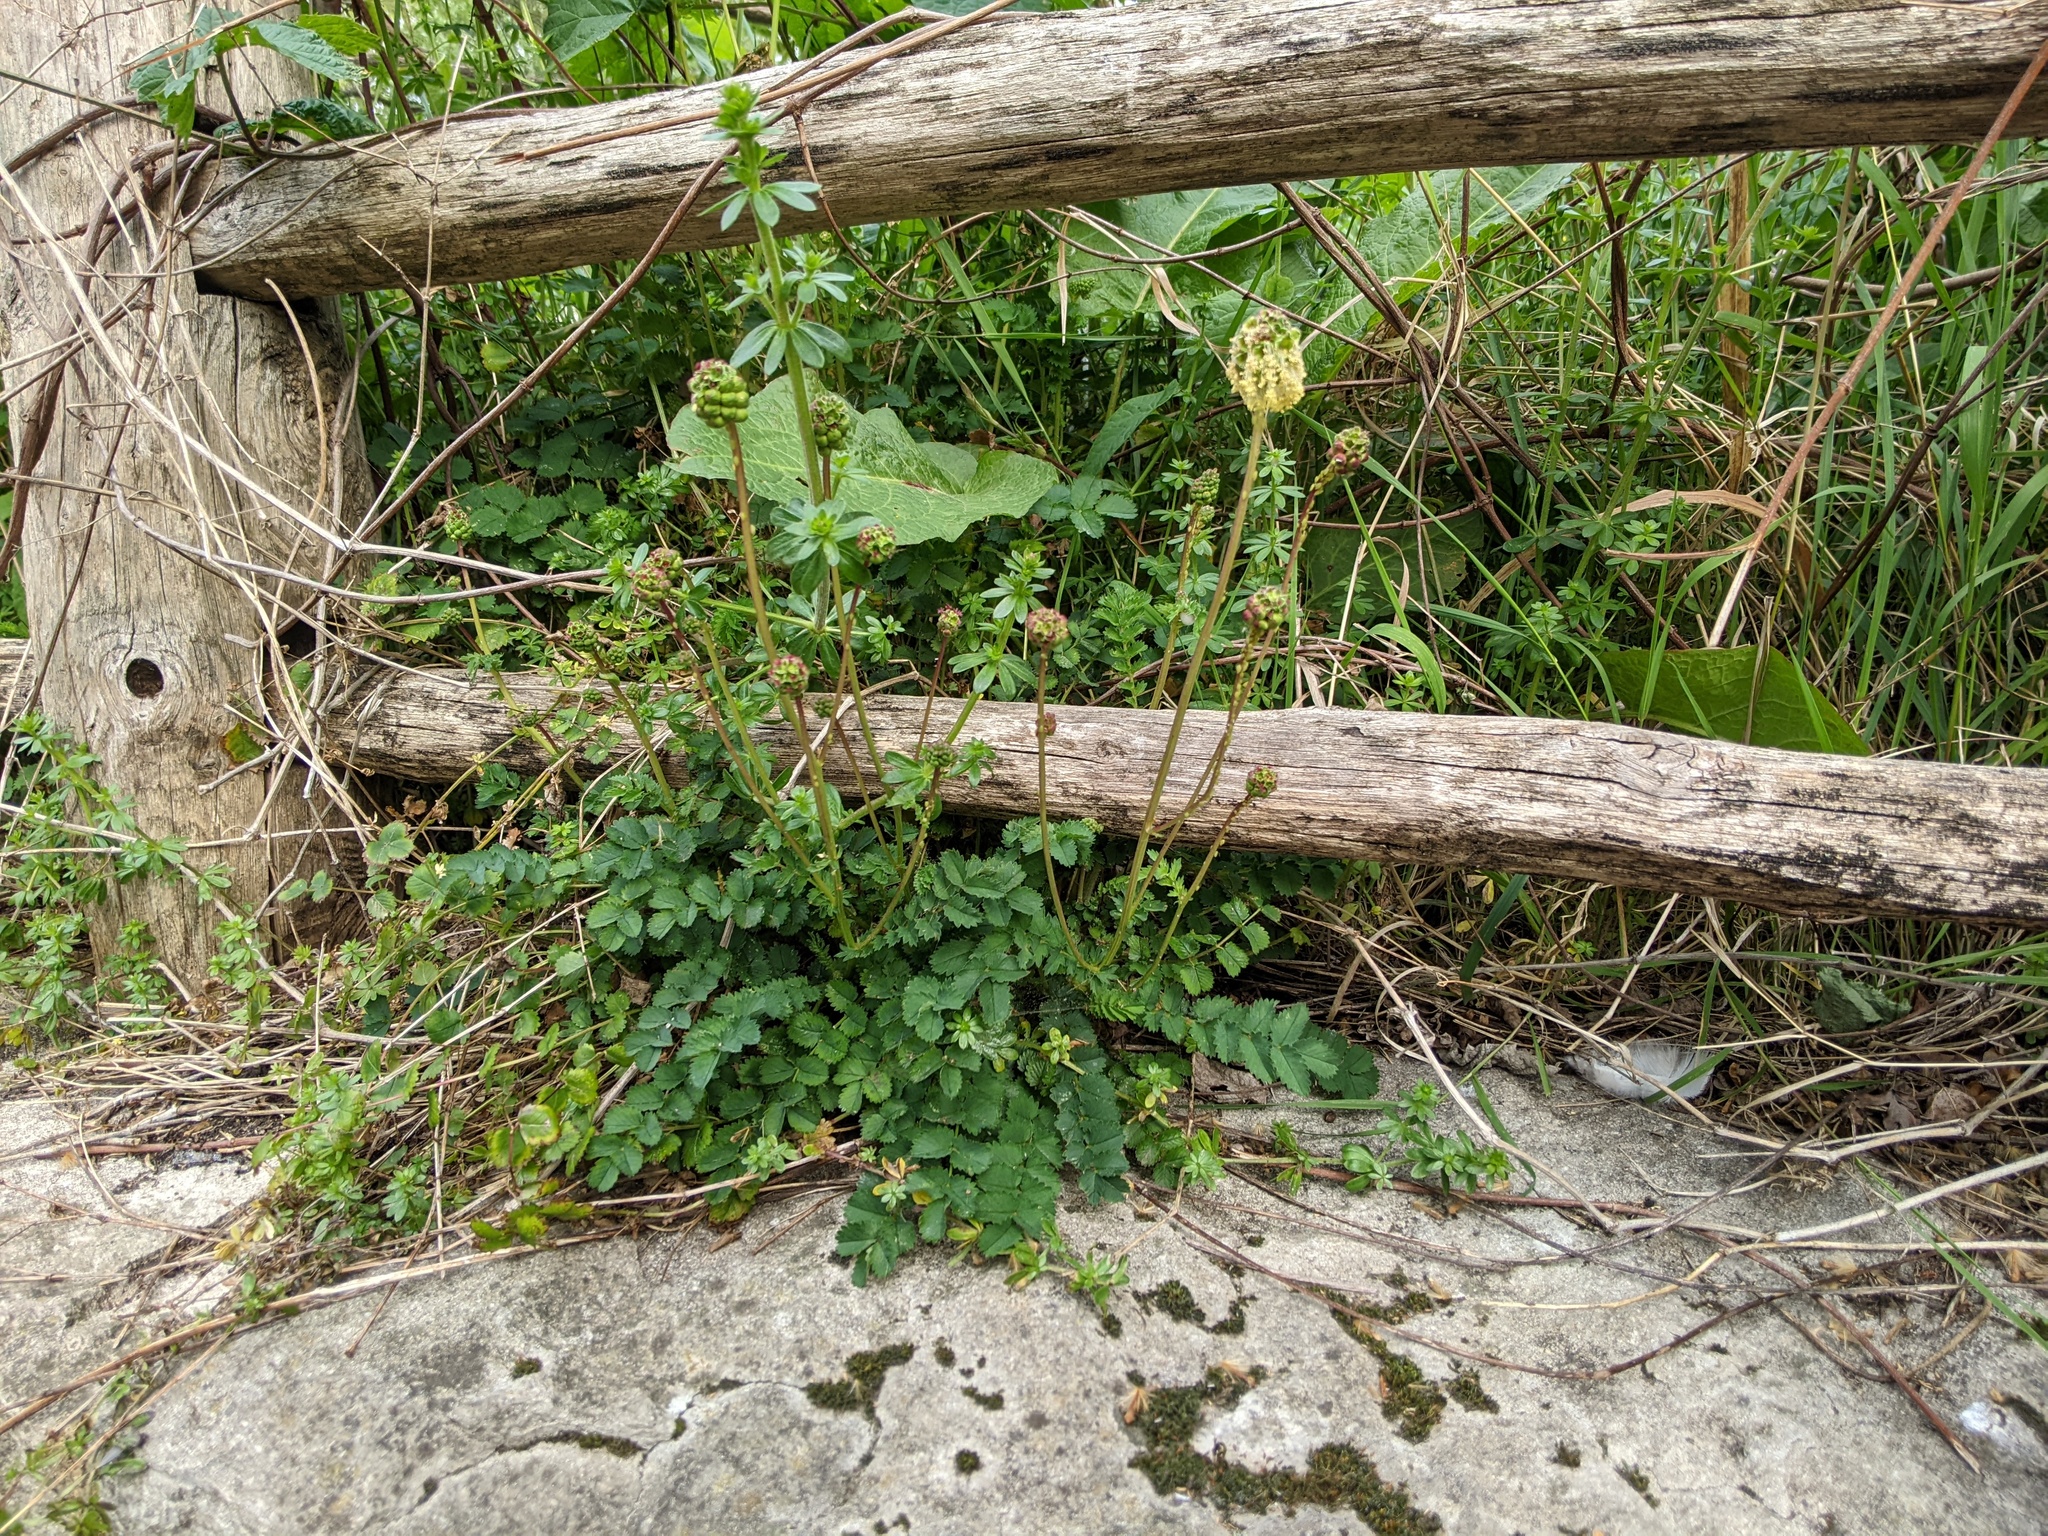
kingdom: Plantae
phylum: Tracheophyta
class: Magnoliopsida
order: Rosales
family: Rosaceae
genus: Poterium
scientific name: Poterium sanguisorba
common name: Salad burnet
